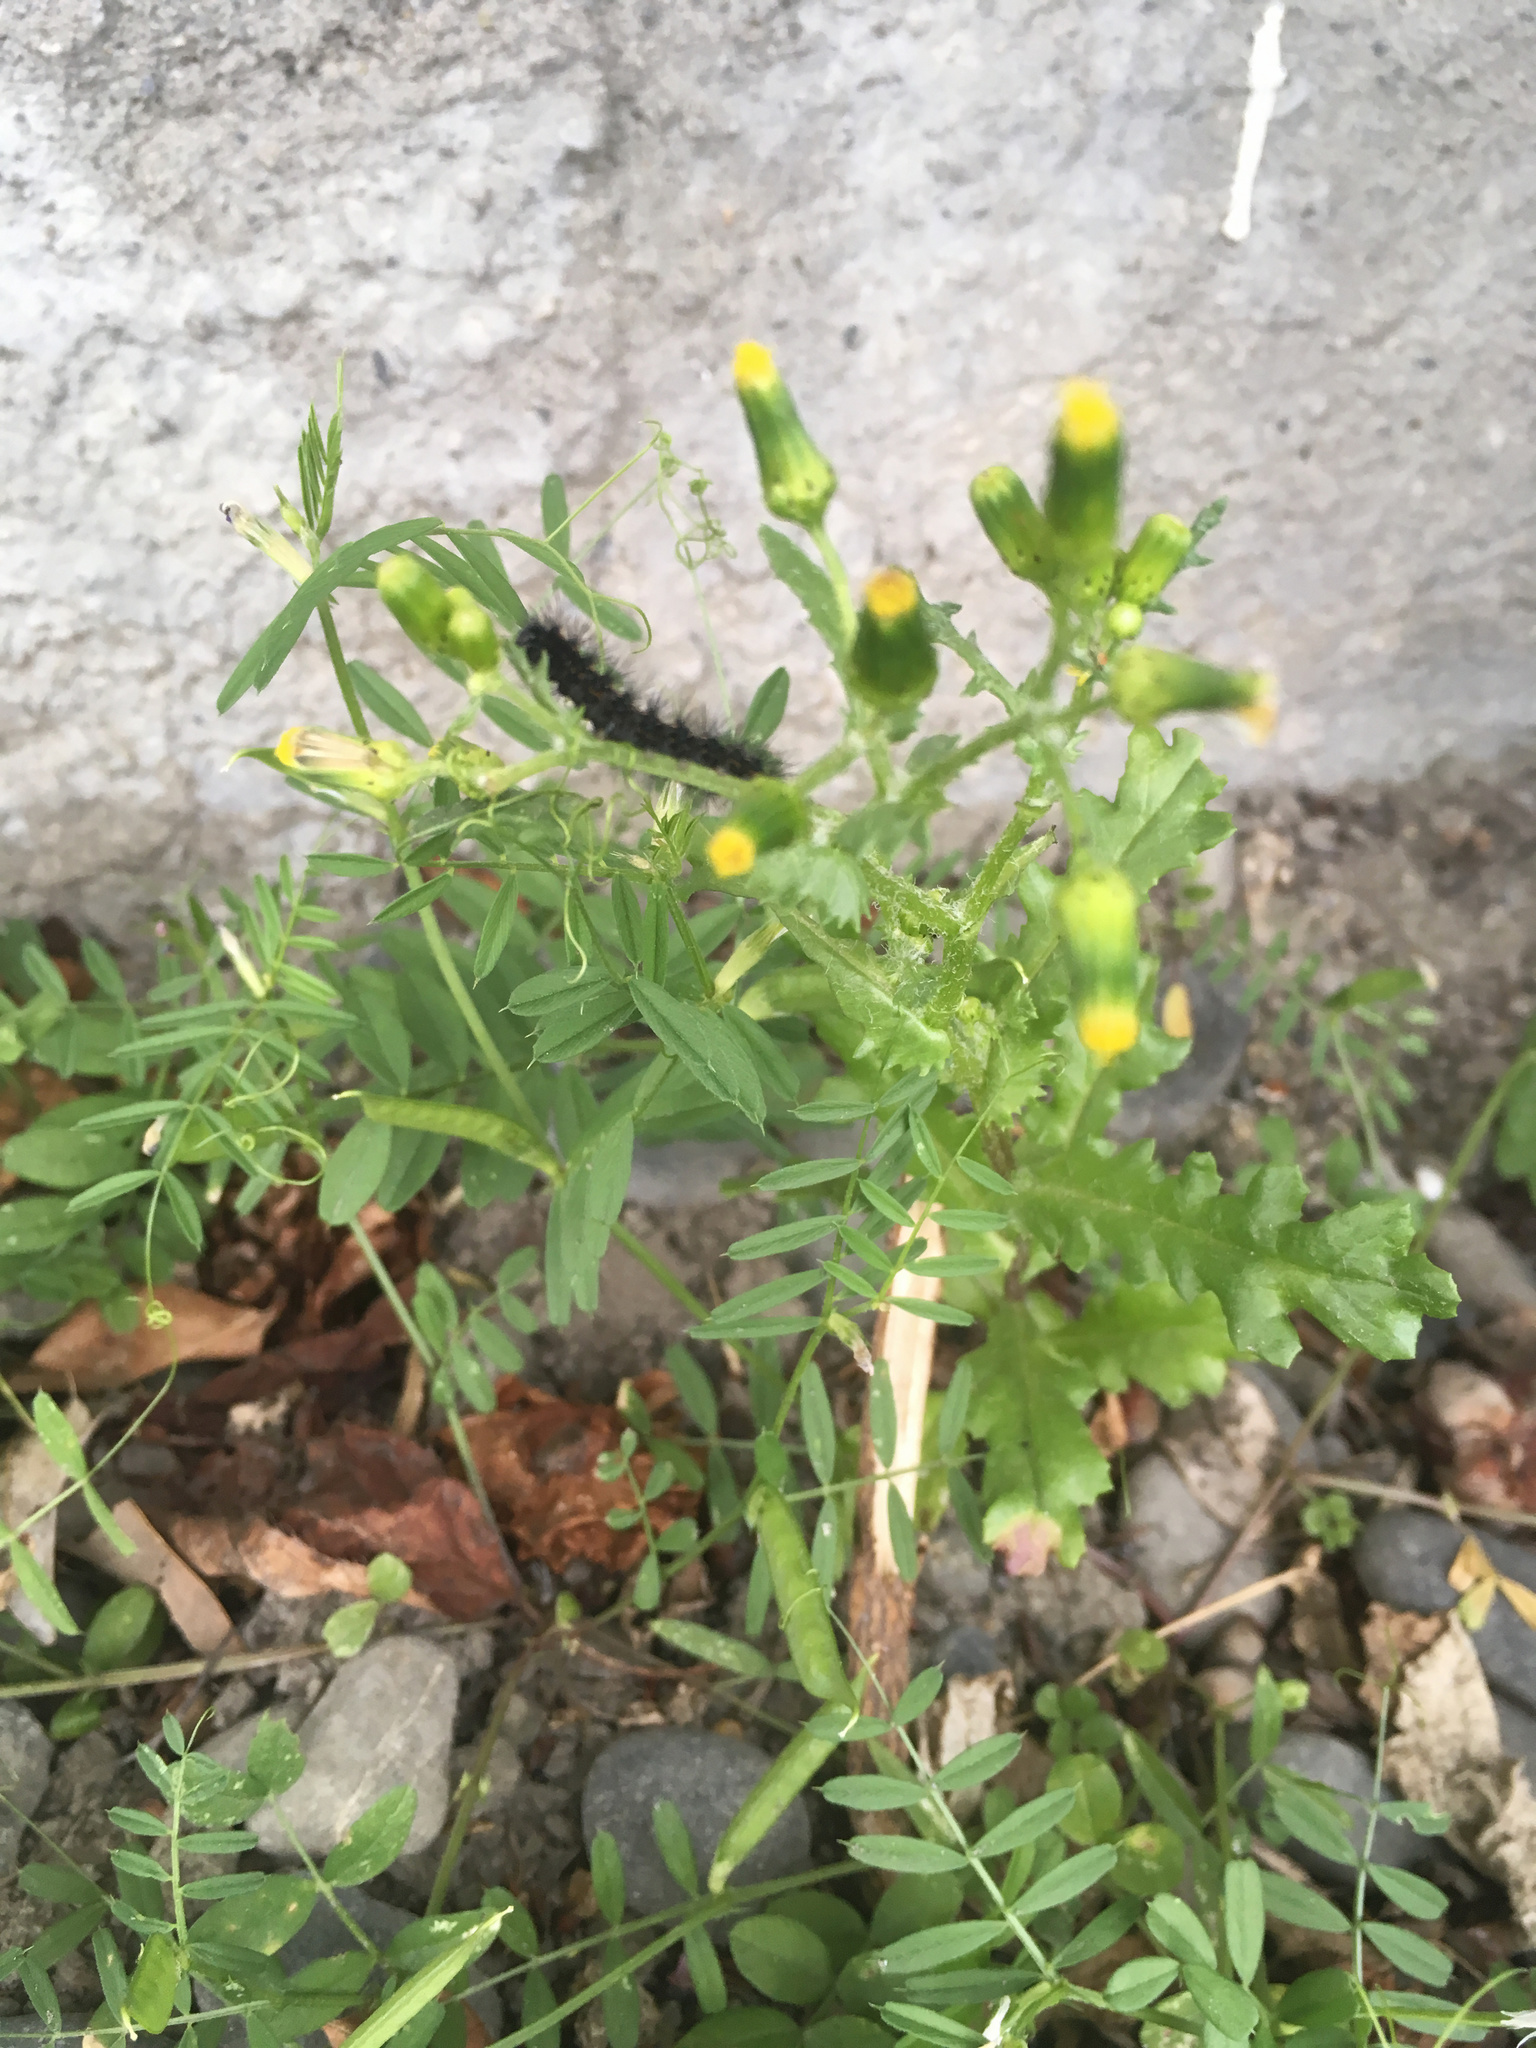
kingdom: Animalia
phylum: Arthropoda
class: Insecta
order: Lepidoptera
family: Erebidae
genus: Nyctemera
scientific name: Nyctemera annulatum
